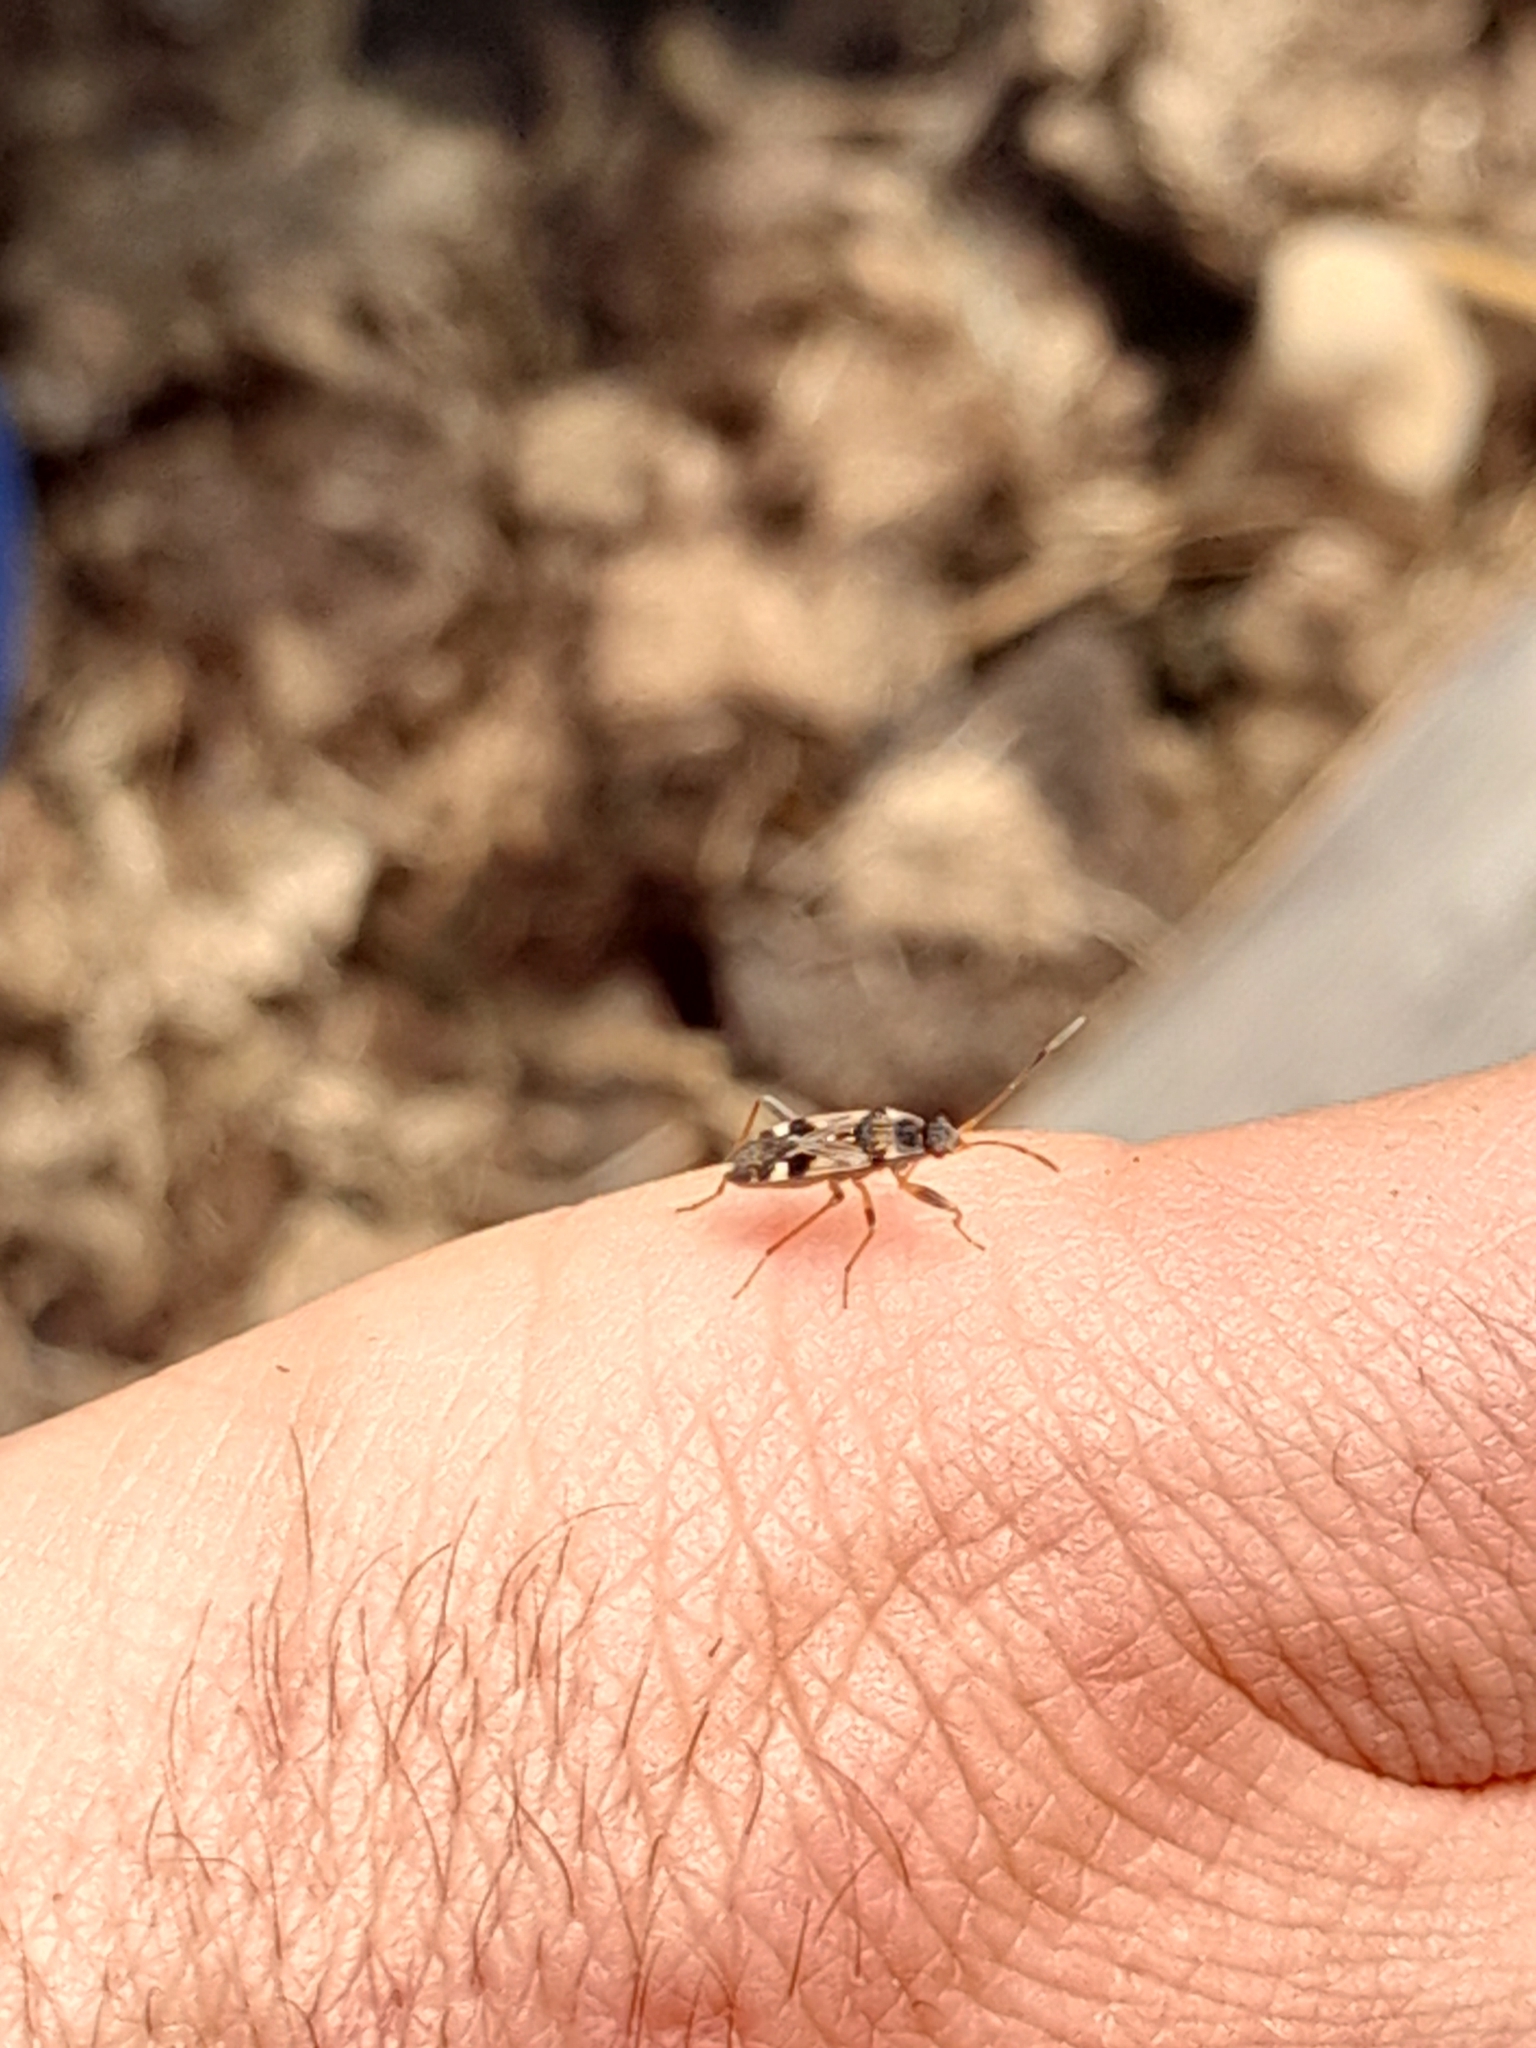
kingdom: Animalia
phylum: Arthropoda
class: Insecta
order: Hemiptera
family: Rhyparochromidae
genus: Beosus
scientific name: Beosus maritimus
